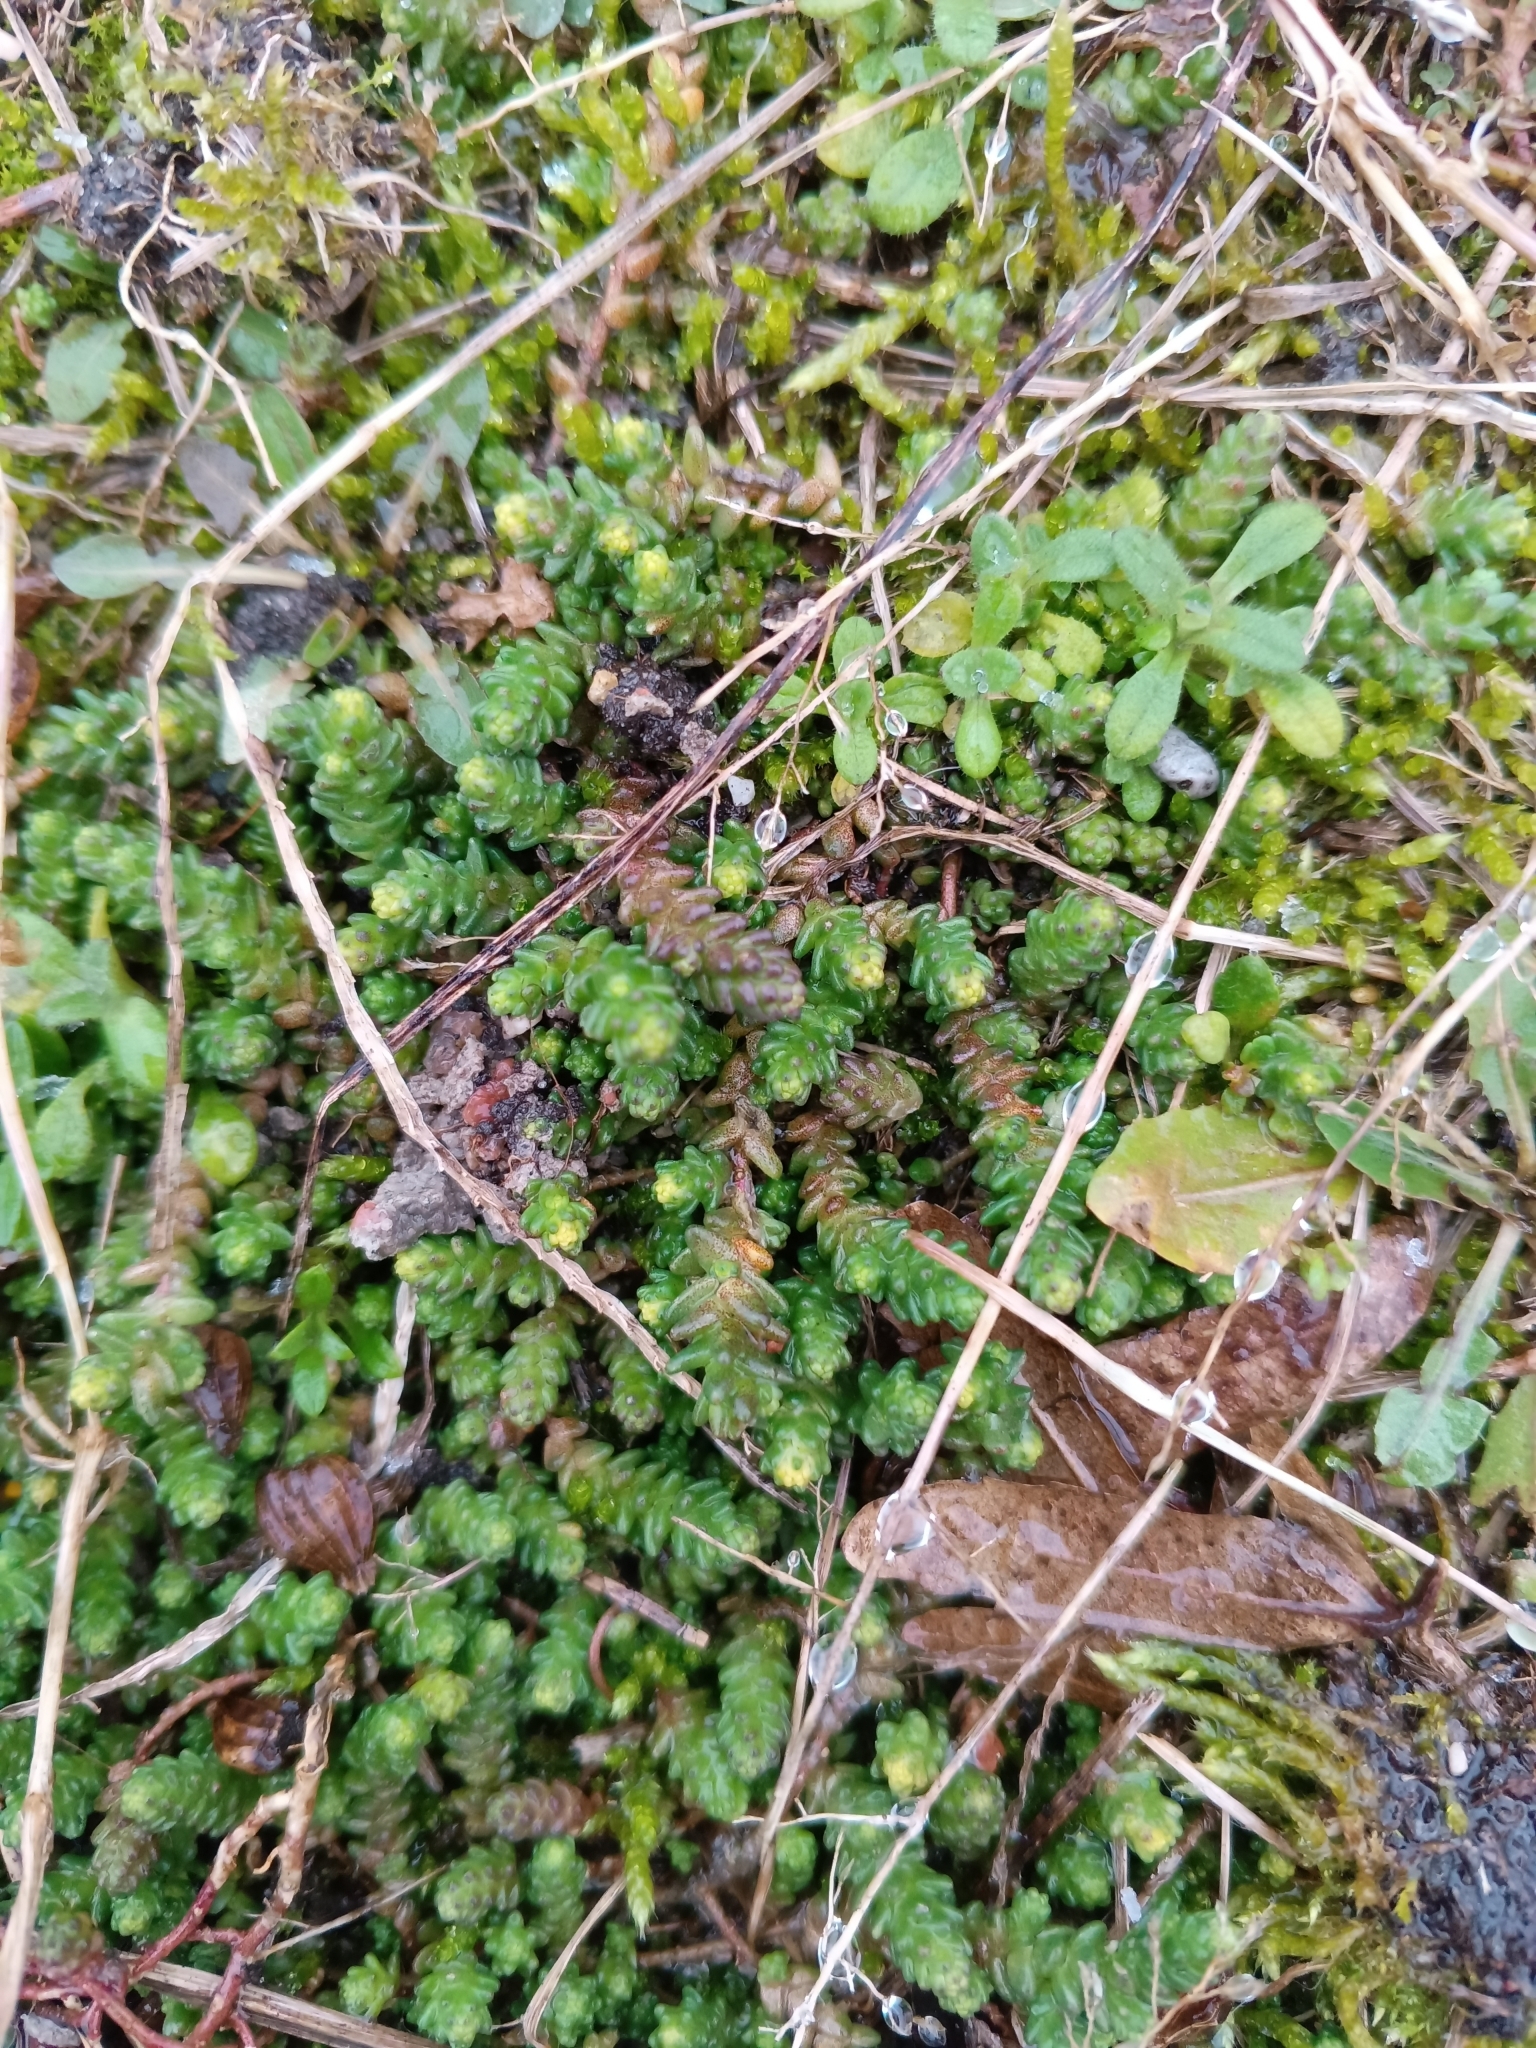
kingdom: Plantae
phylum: Tracheophyta
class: Magnoliopsida
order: Saxifragales
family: Crassulaceae
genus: Sedum
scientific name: Sedum acre
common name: Biting stonecrop
